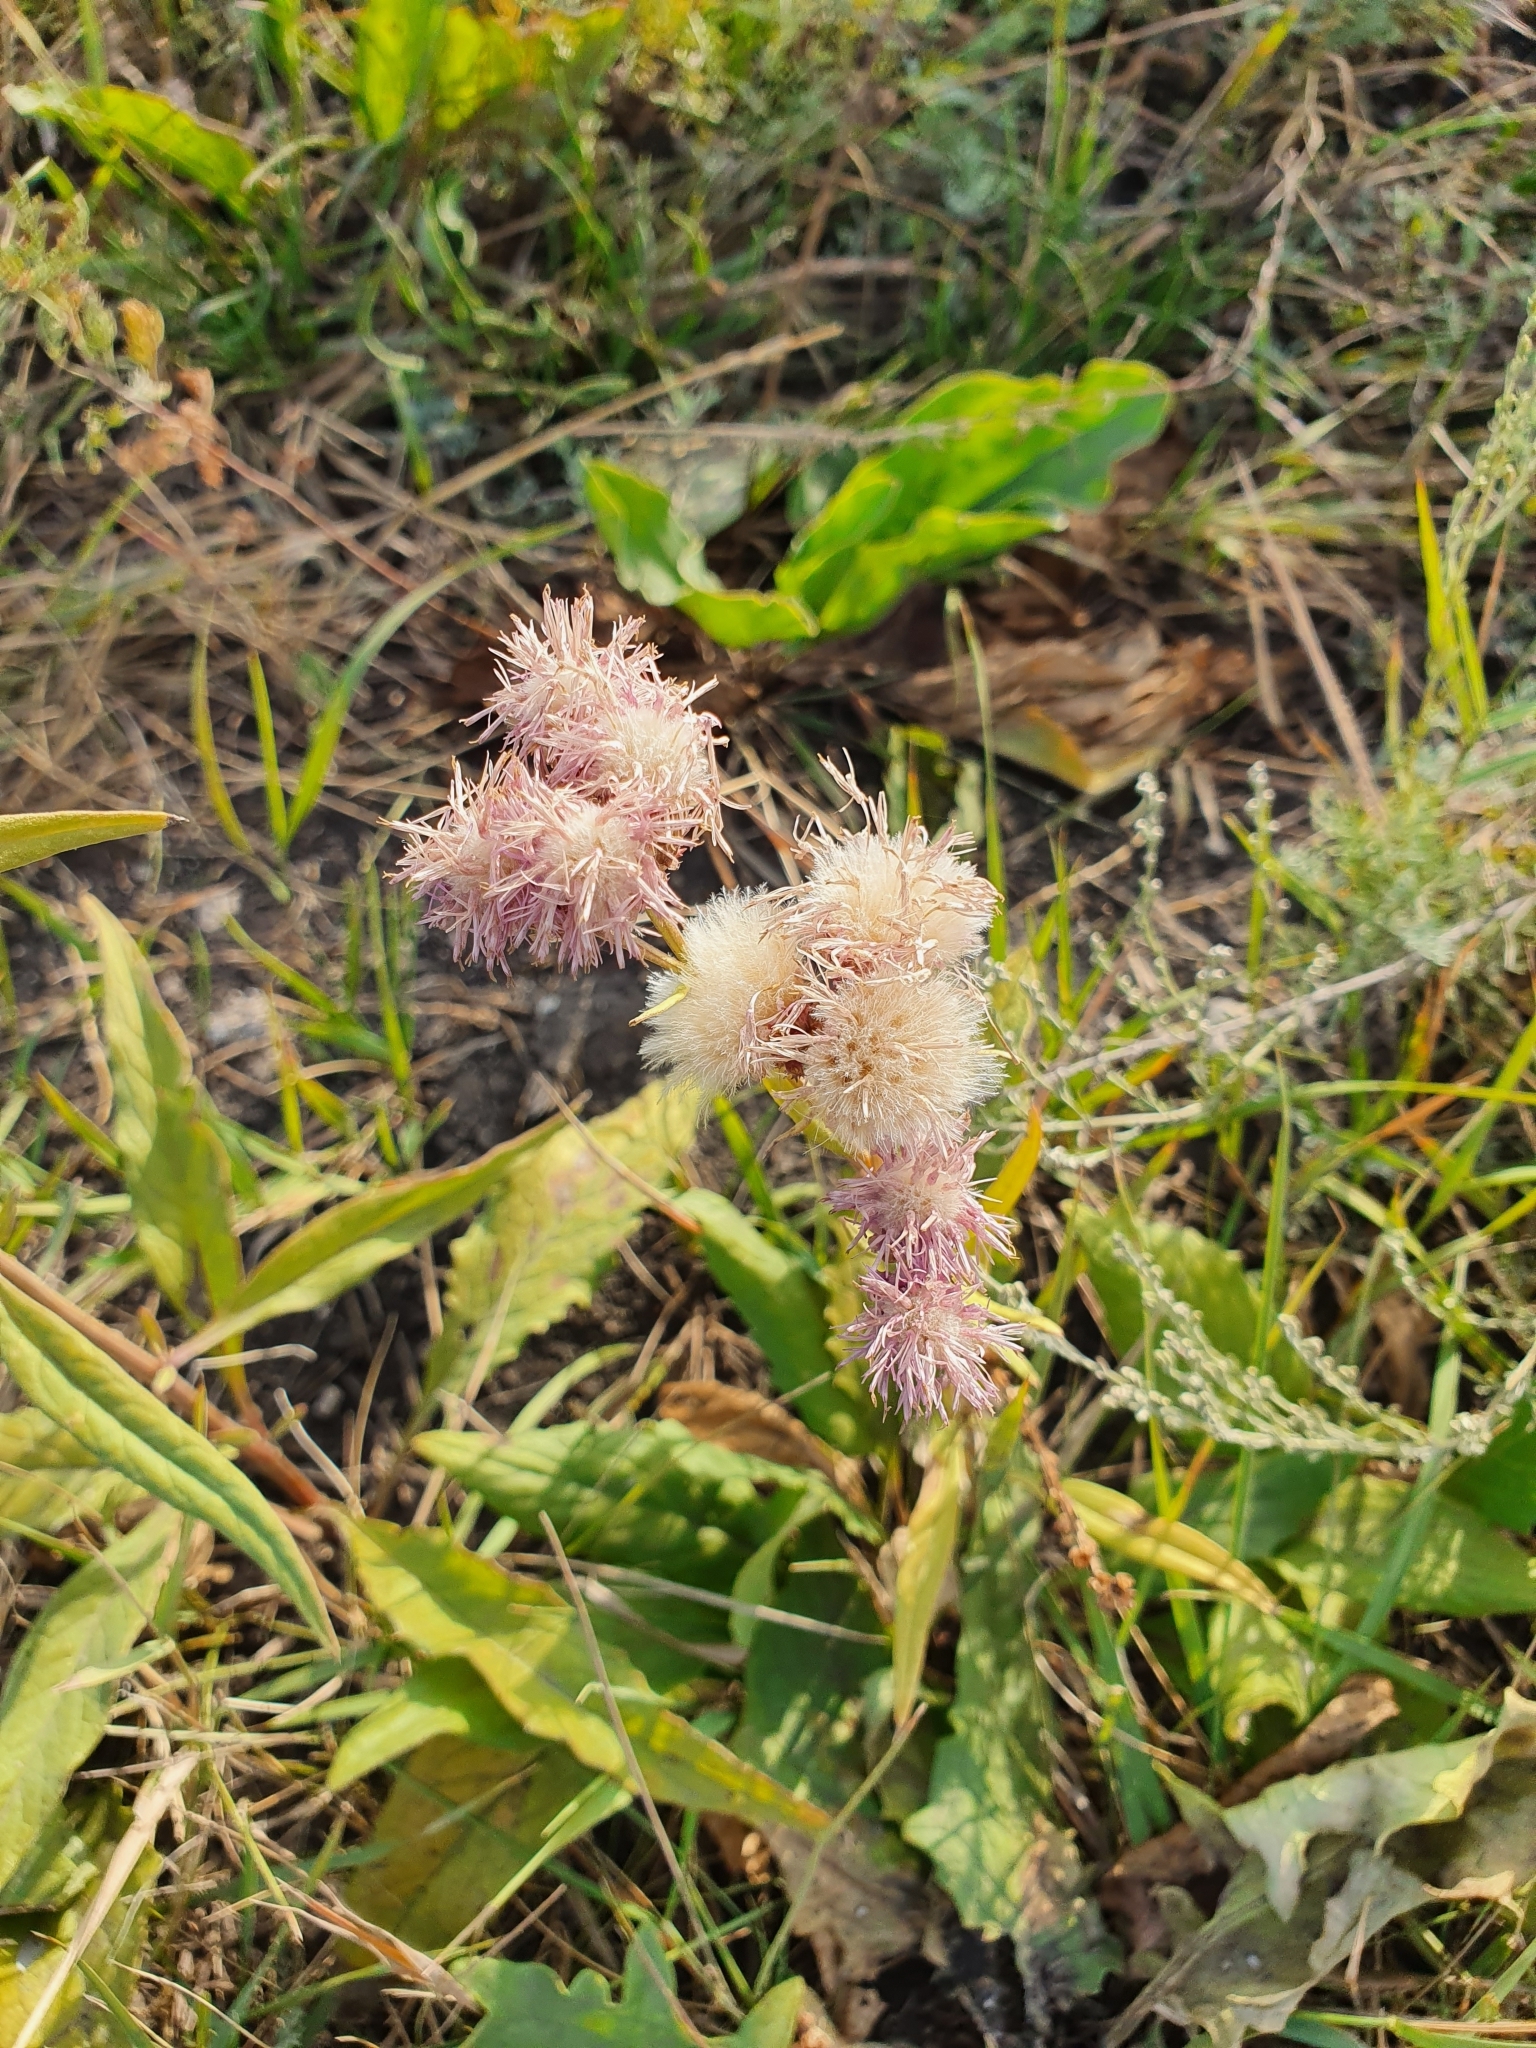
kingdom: Plantae
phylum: Tracheophyta
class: Magnoliopsida
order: Asterales
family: Asteraceae
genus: Saussurea
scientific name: Saussurea amara
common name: Alberta sawwort
